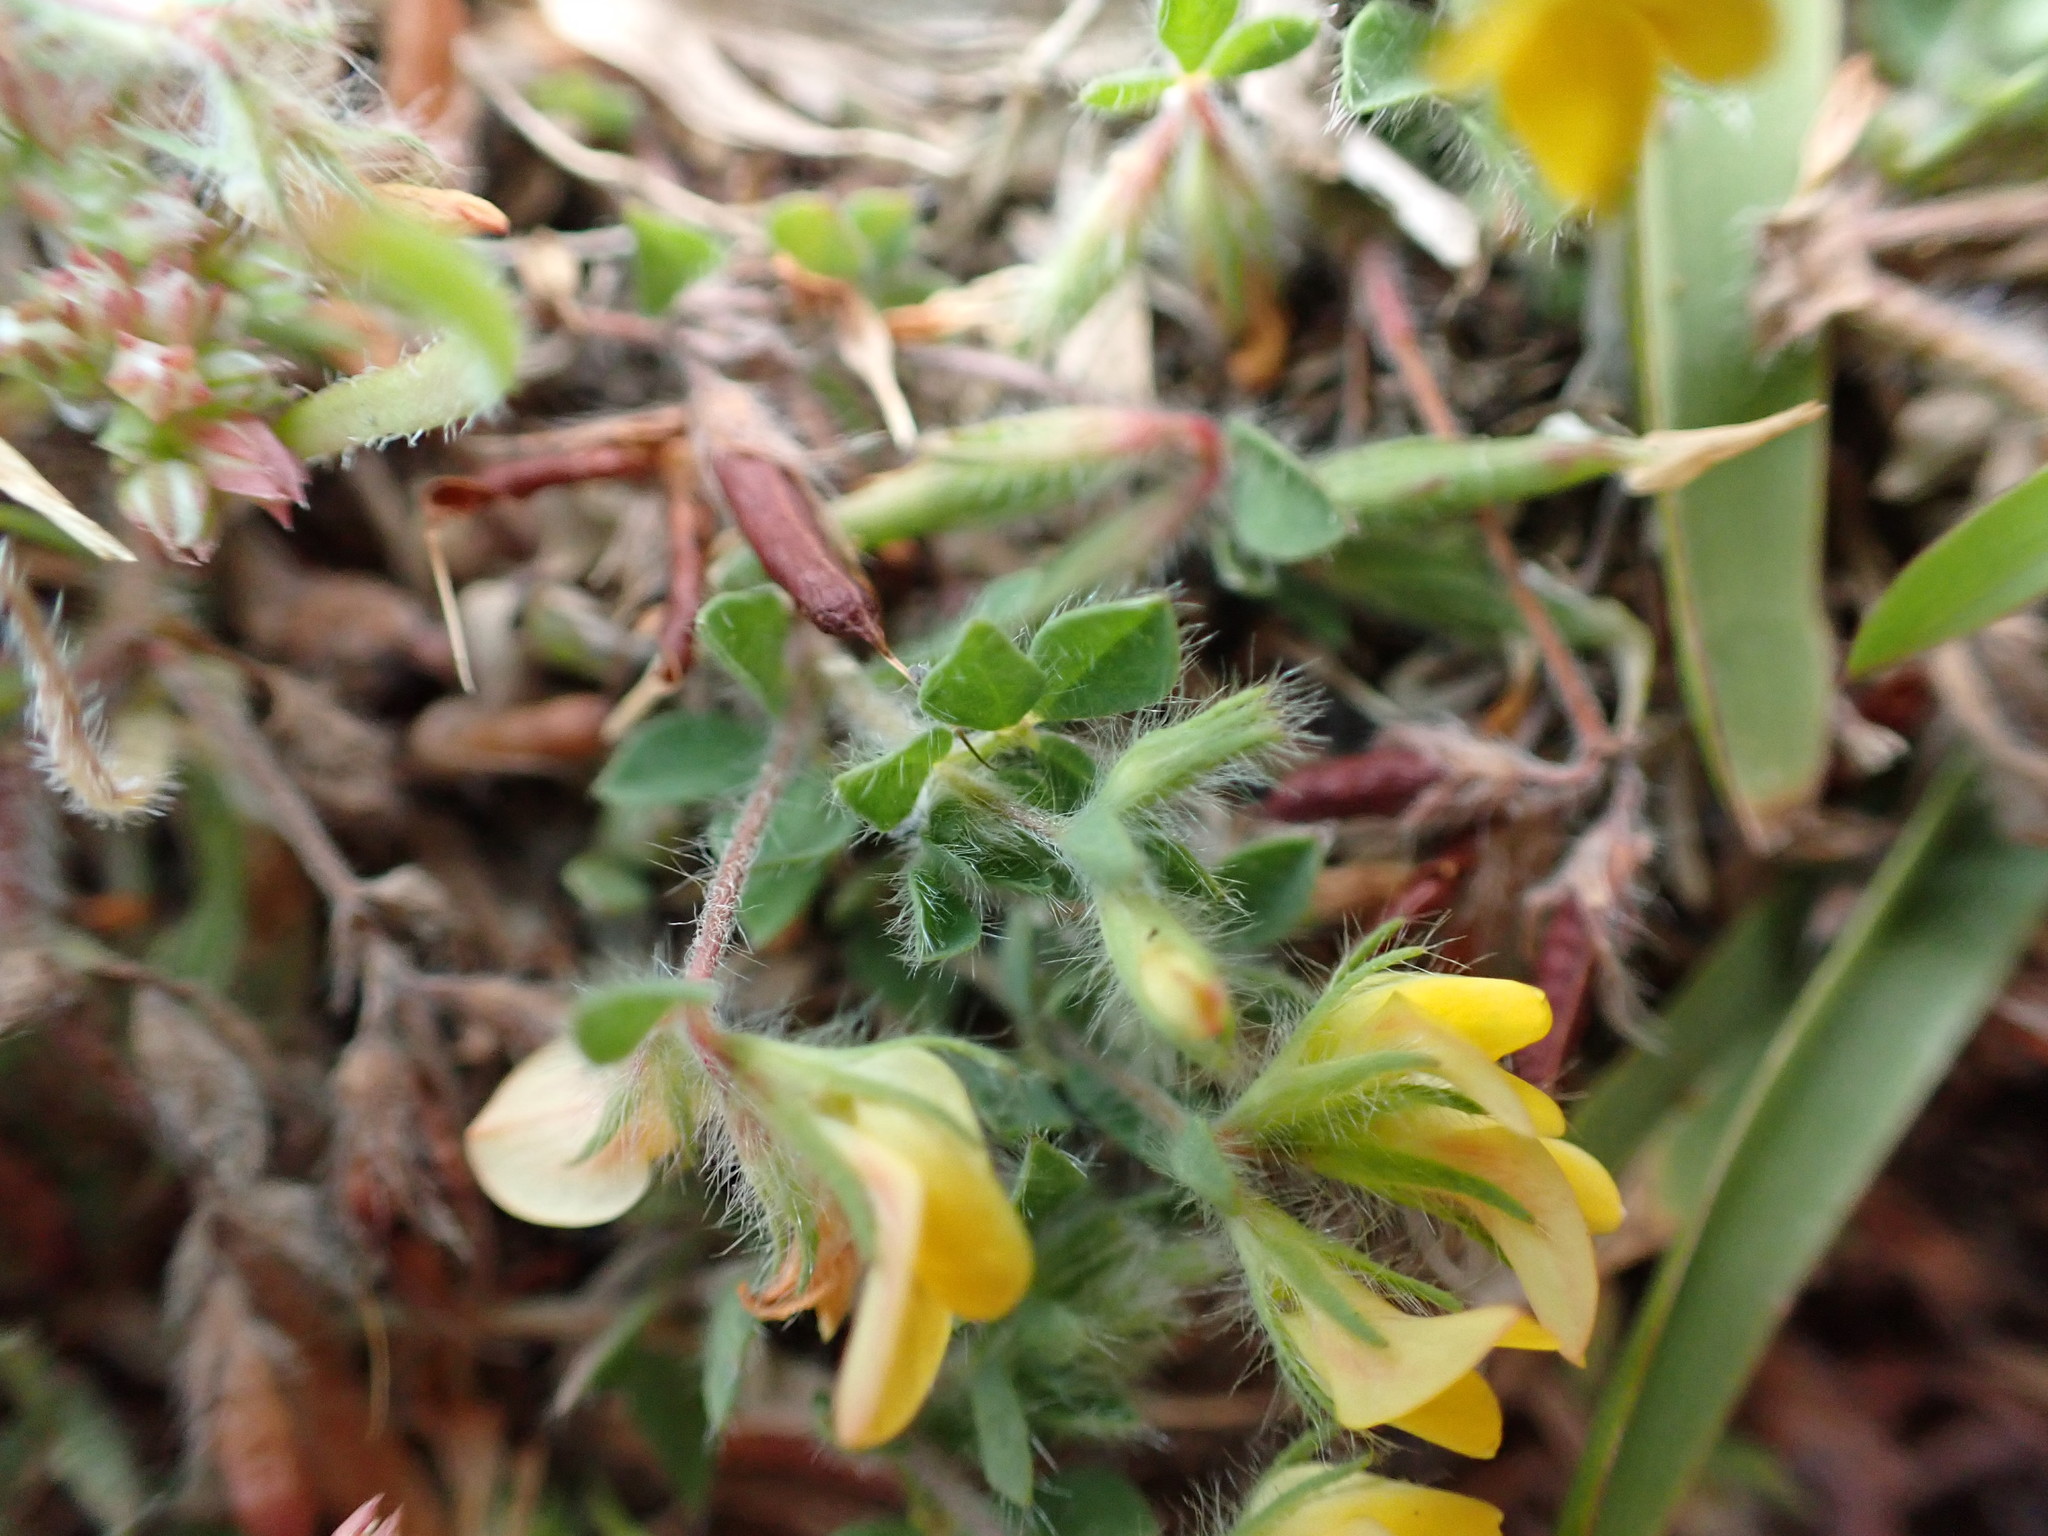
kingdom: Plantae
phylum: Tracheophyta
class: Magnoliopsida
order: Fabales
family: Fabaceae
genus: Lotus
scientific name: Lotus subbiflorus
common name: Hairy bird's-foot trefoil
